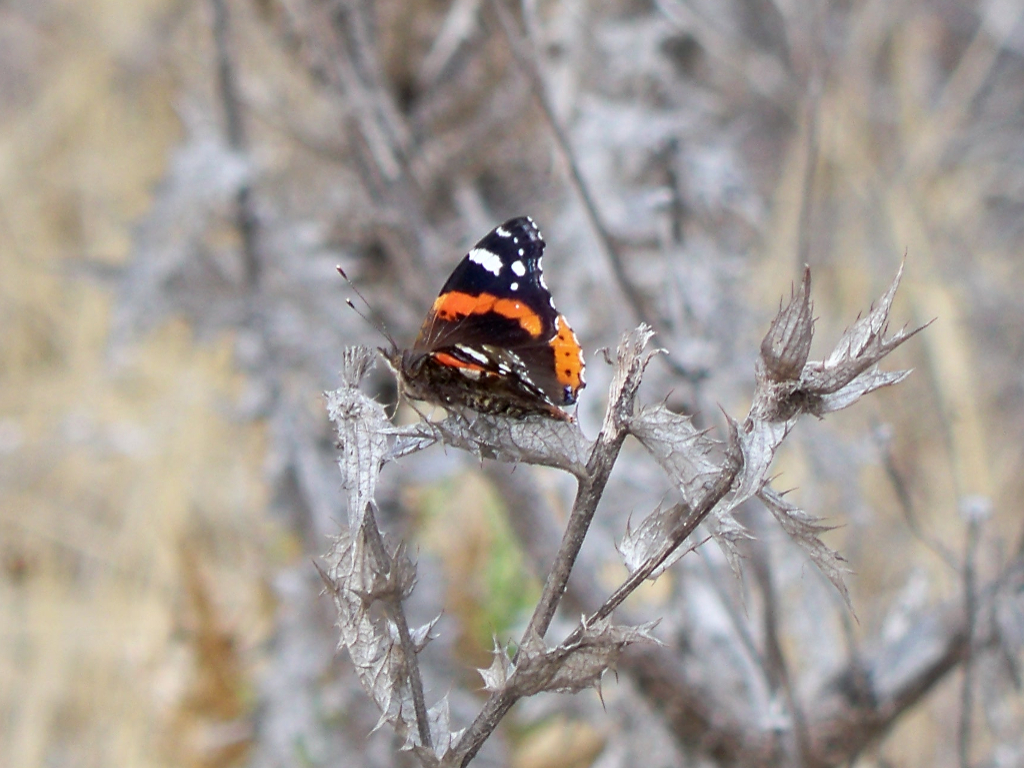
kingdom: Animalia
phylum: Arthropoda
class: Insecta
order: Lepidoptera
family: Nymphalidae
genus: Vanessa
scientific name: Vanessa atalanta
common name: Red admiral
